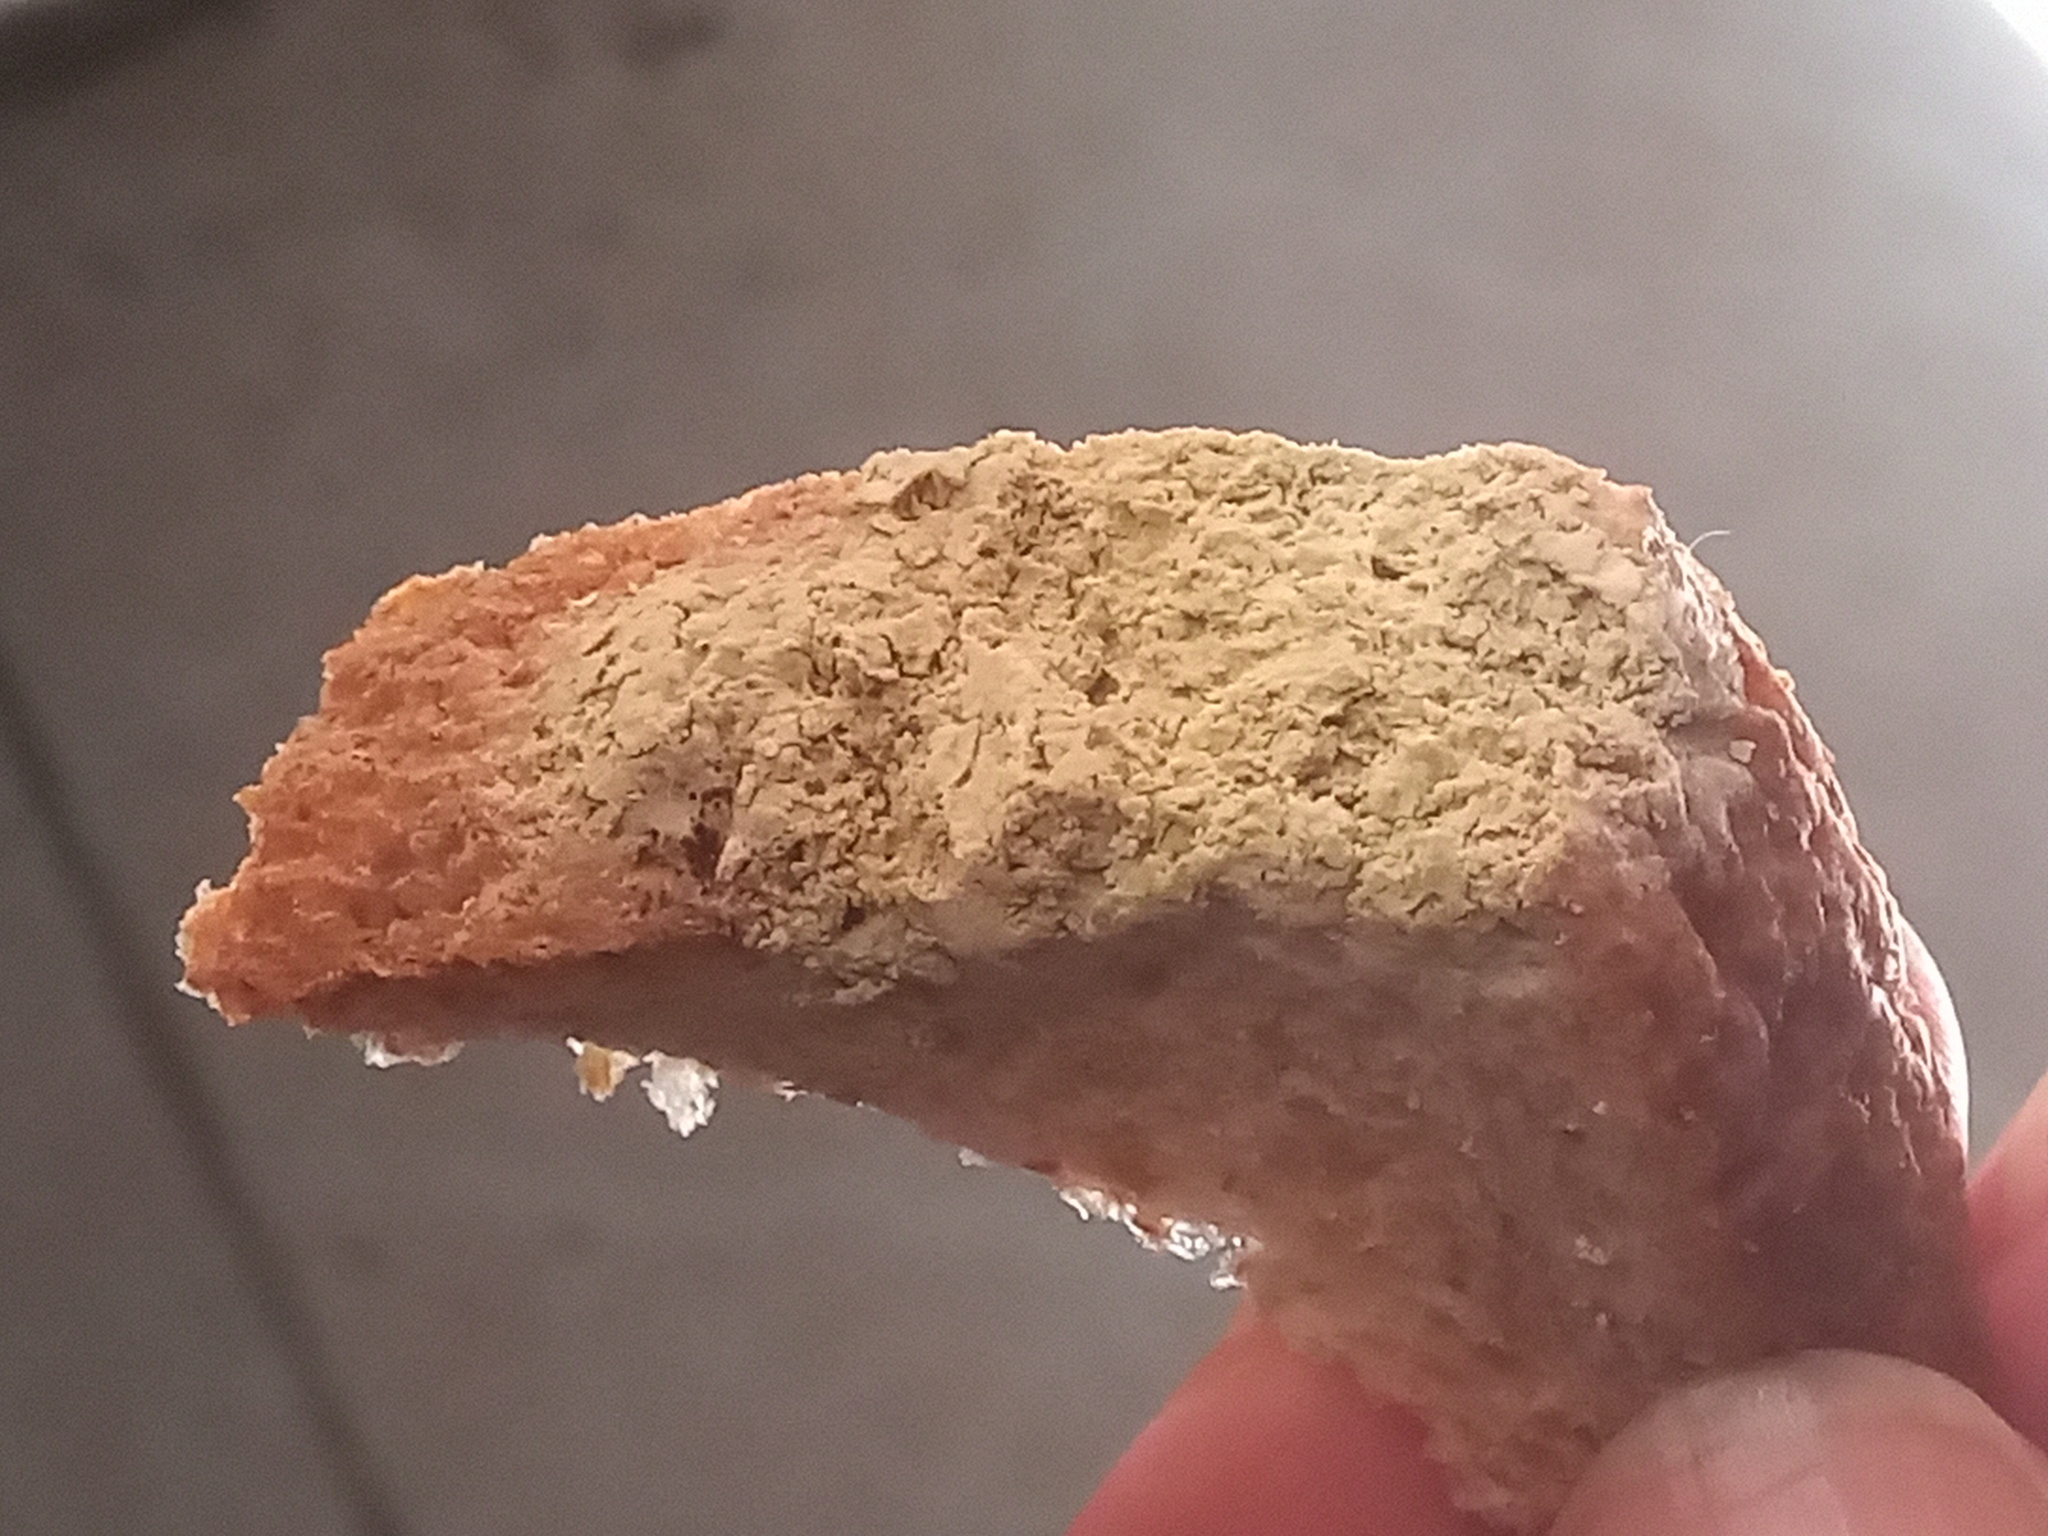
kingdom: Fungi
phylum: Mucoromycota
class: Mucoromycetes
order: Mucorales
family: Rhizopodaceae
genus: Rhizopus
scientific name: Rhizopus stolonifer
